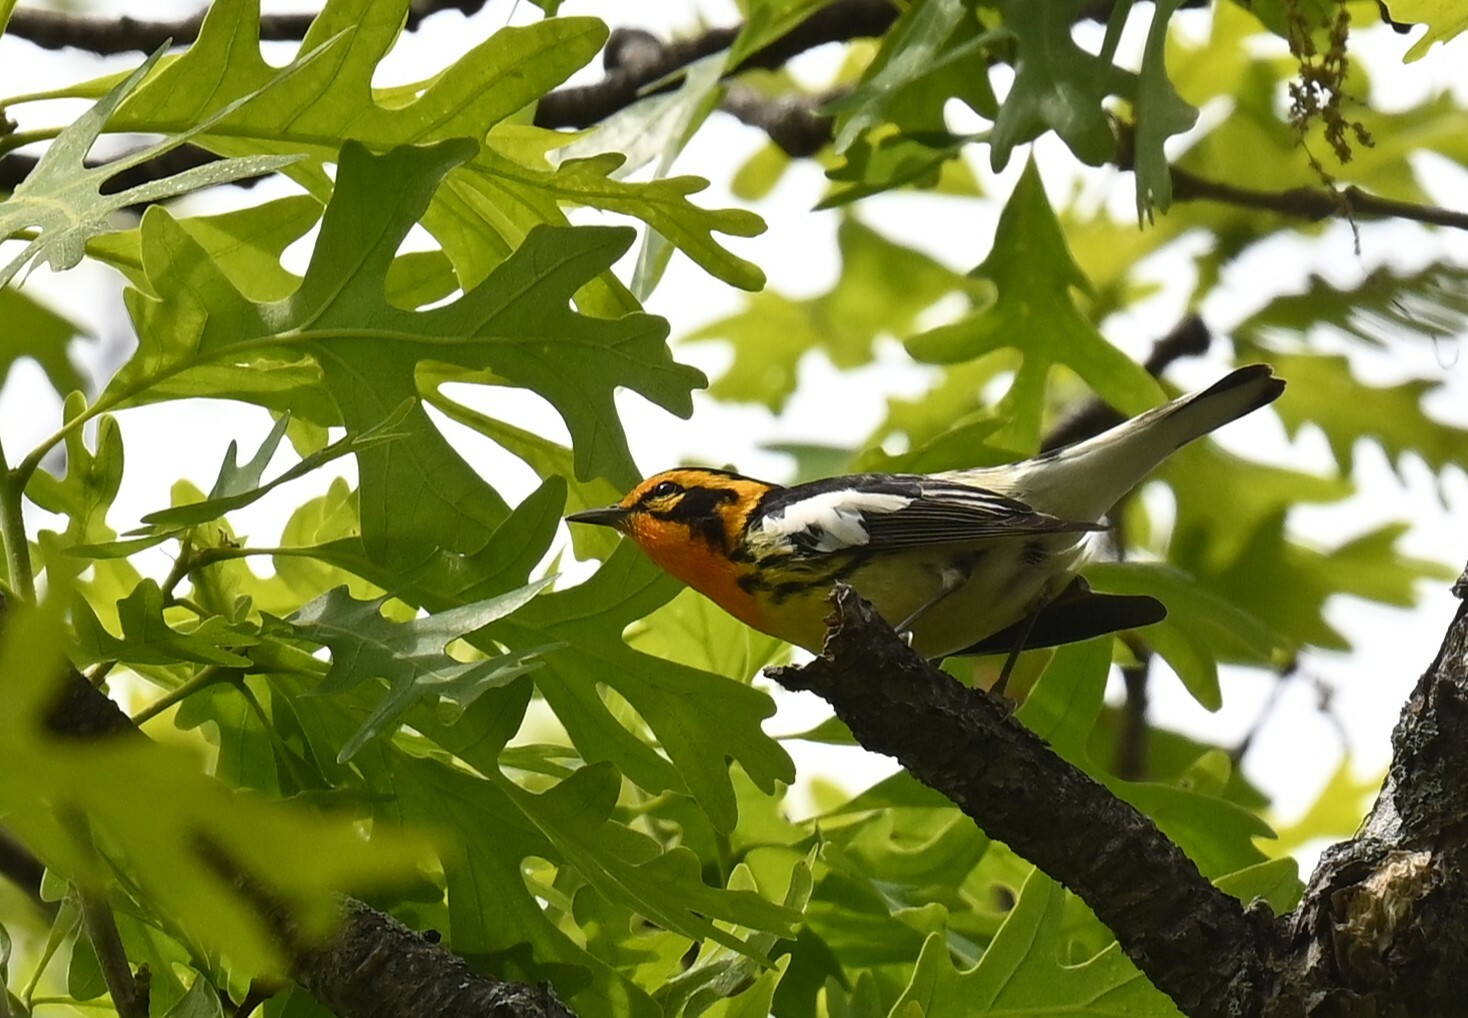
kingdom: Animalia
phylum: Chordata
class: Aves
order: Passeriformes
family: Parulidae
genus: Setophaga
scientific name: Setophaga fusca
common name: Blackburnian warbler
